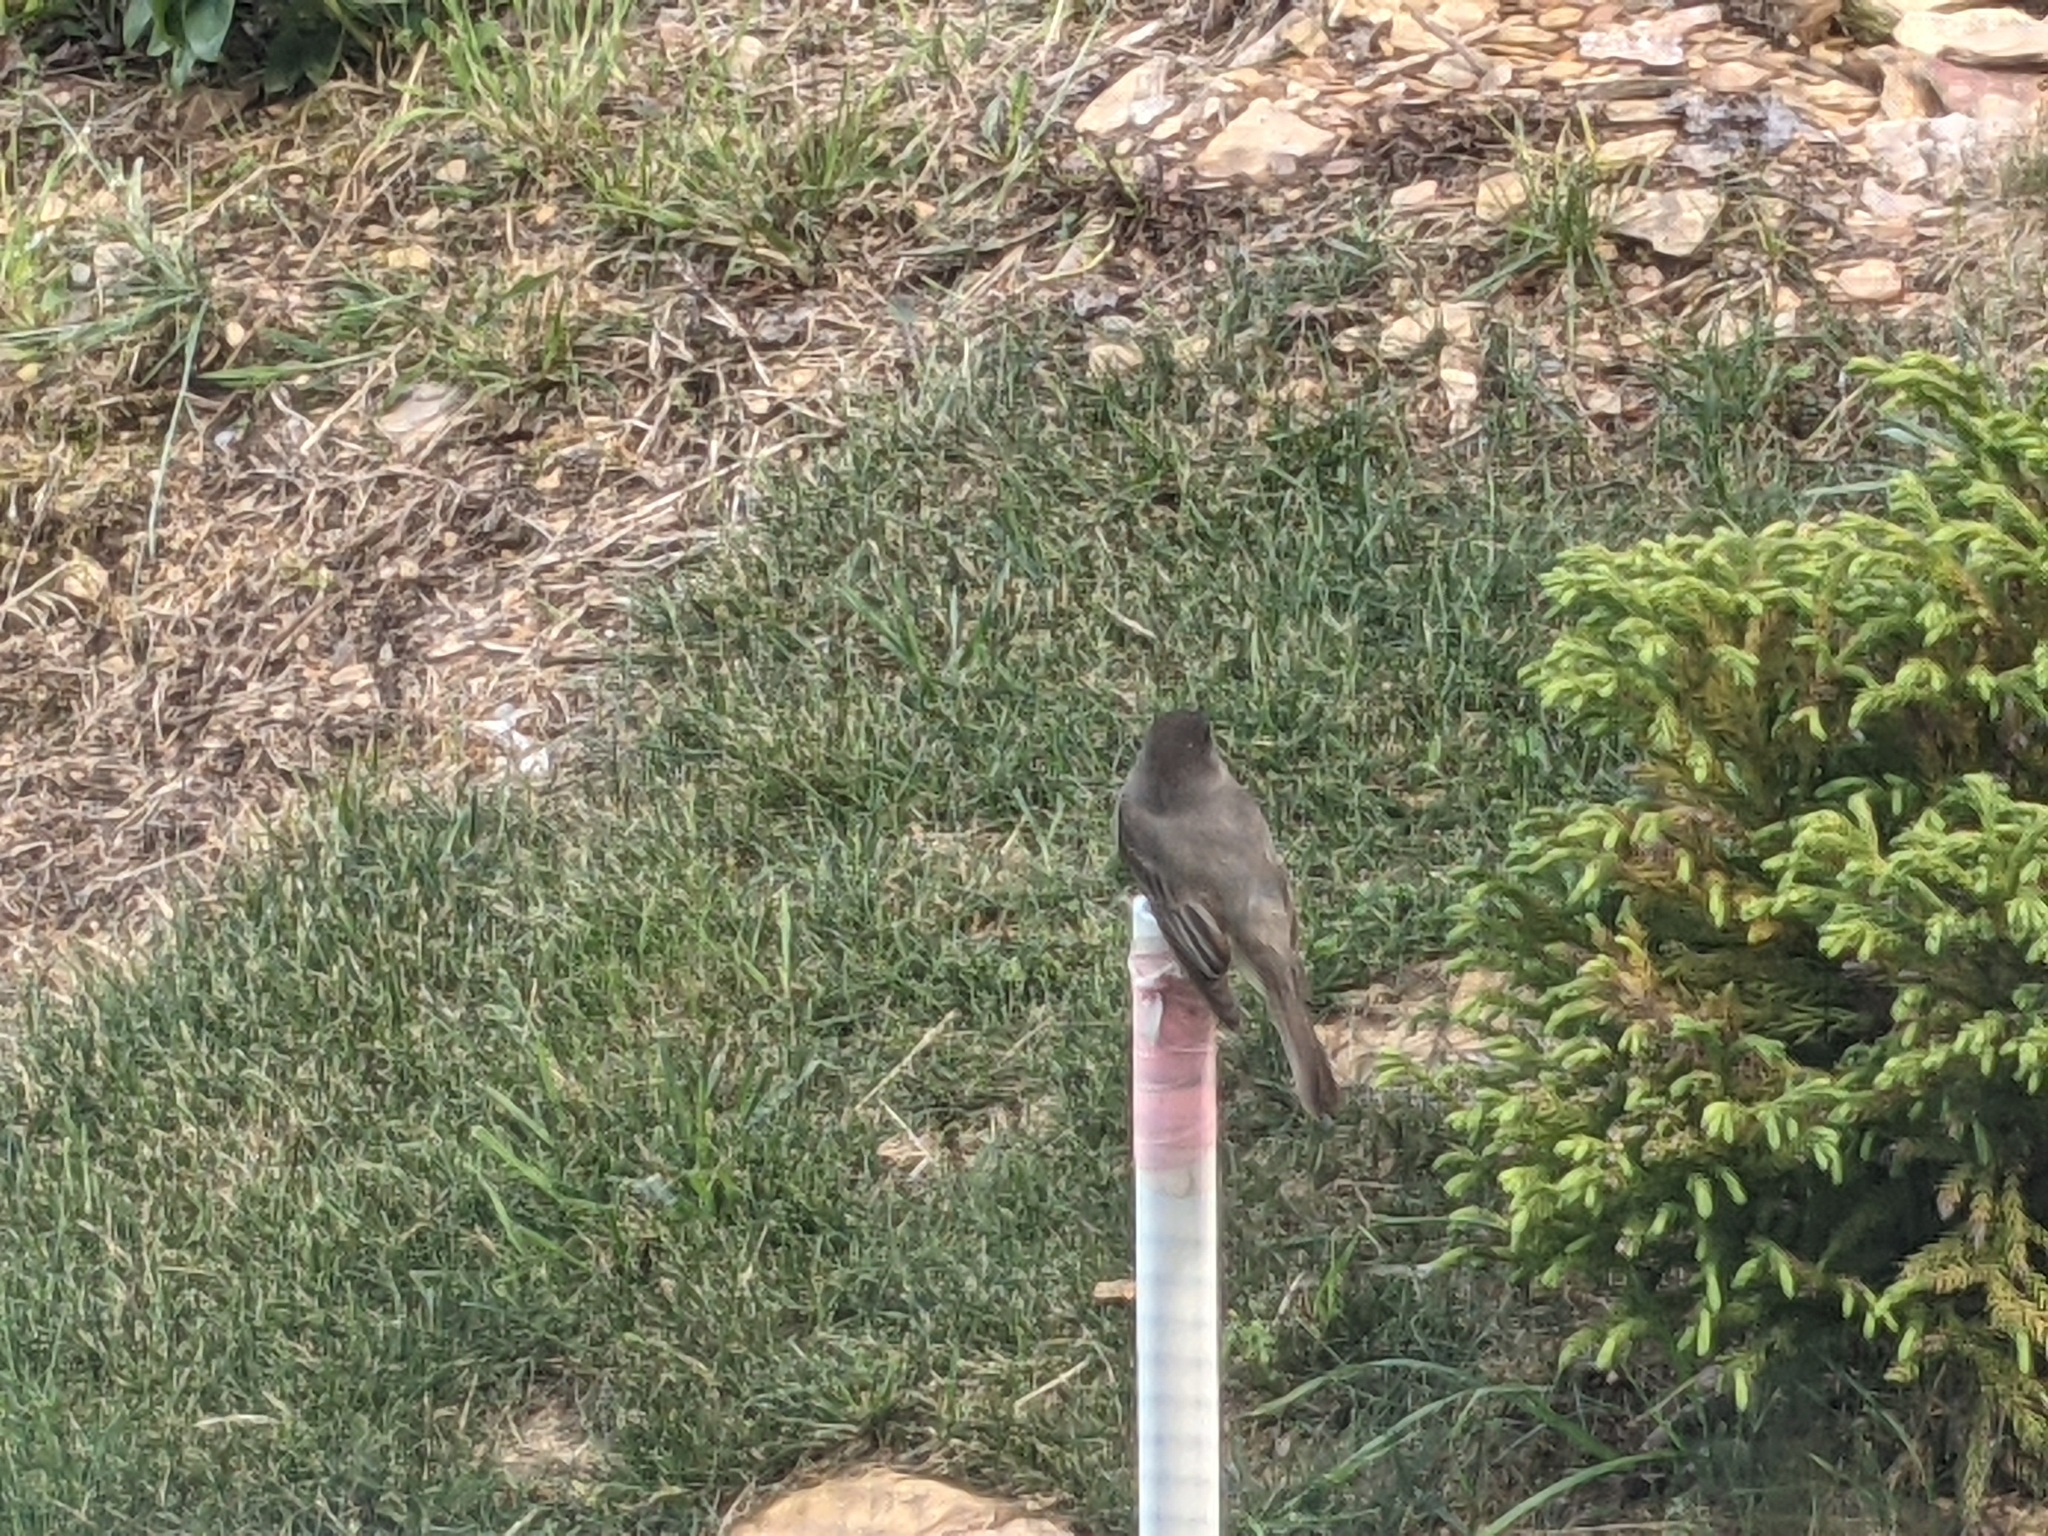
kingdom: Animalia
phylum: Chordata
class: Aves
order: Passeriformes
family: Tyrannidae
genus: Sayornis
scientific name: Sayornis phoebe
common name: Eastern phoebe
